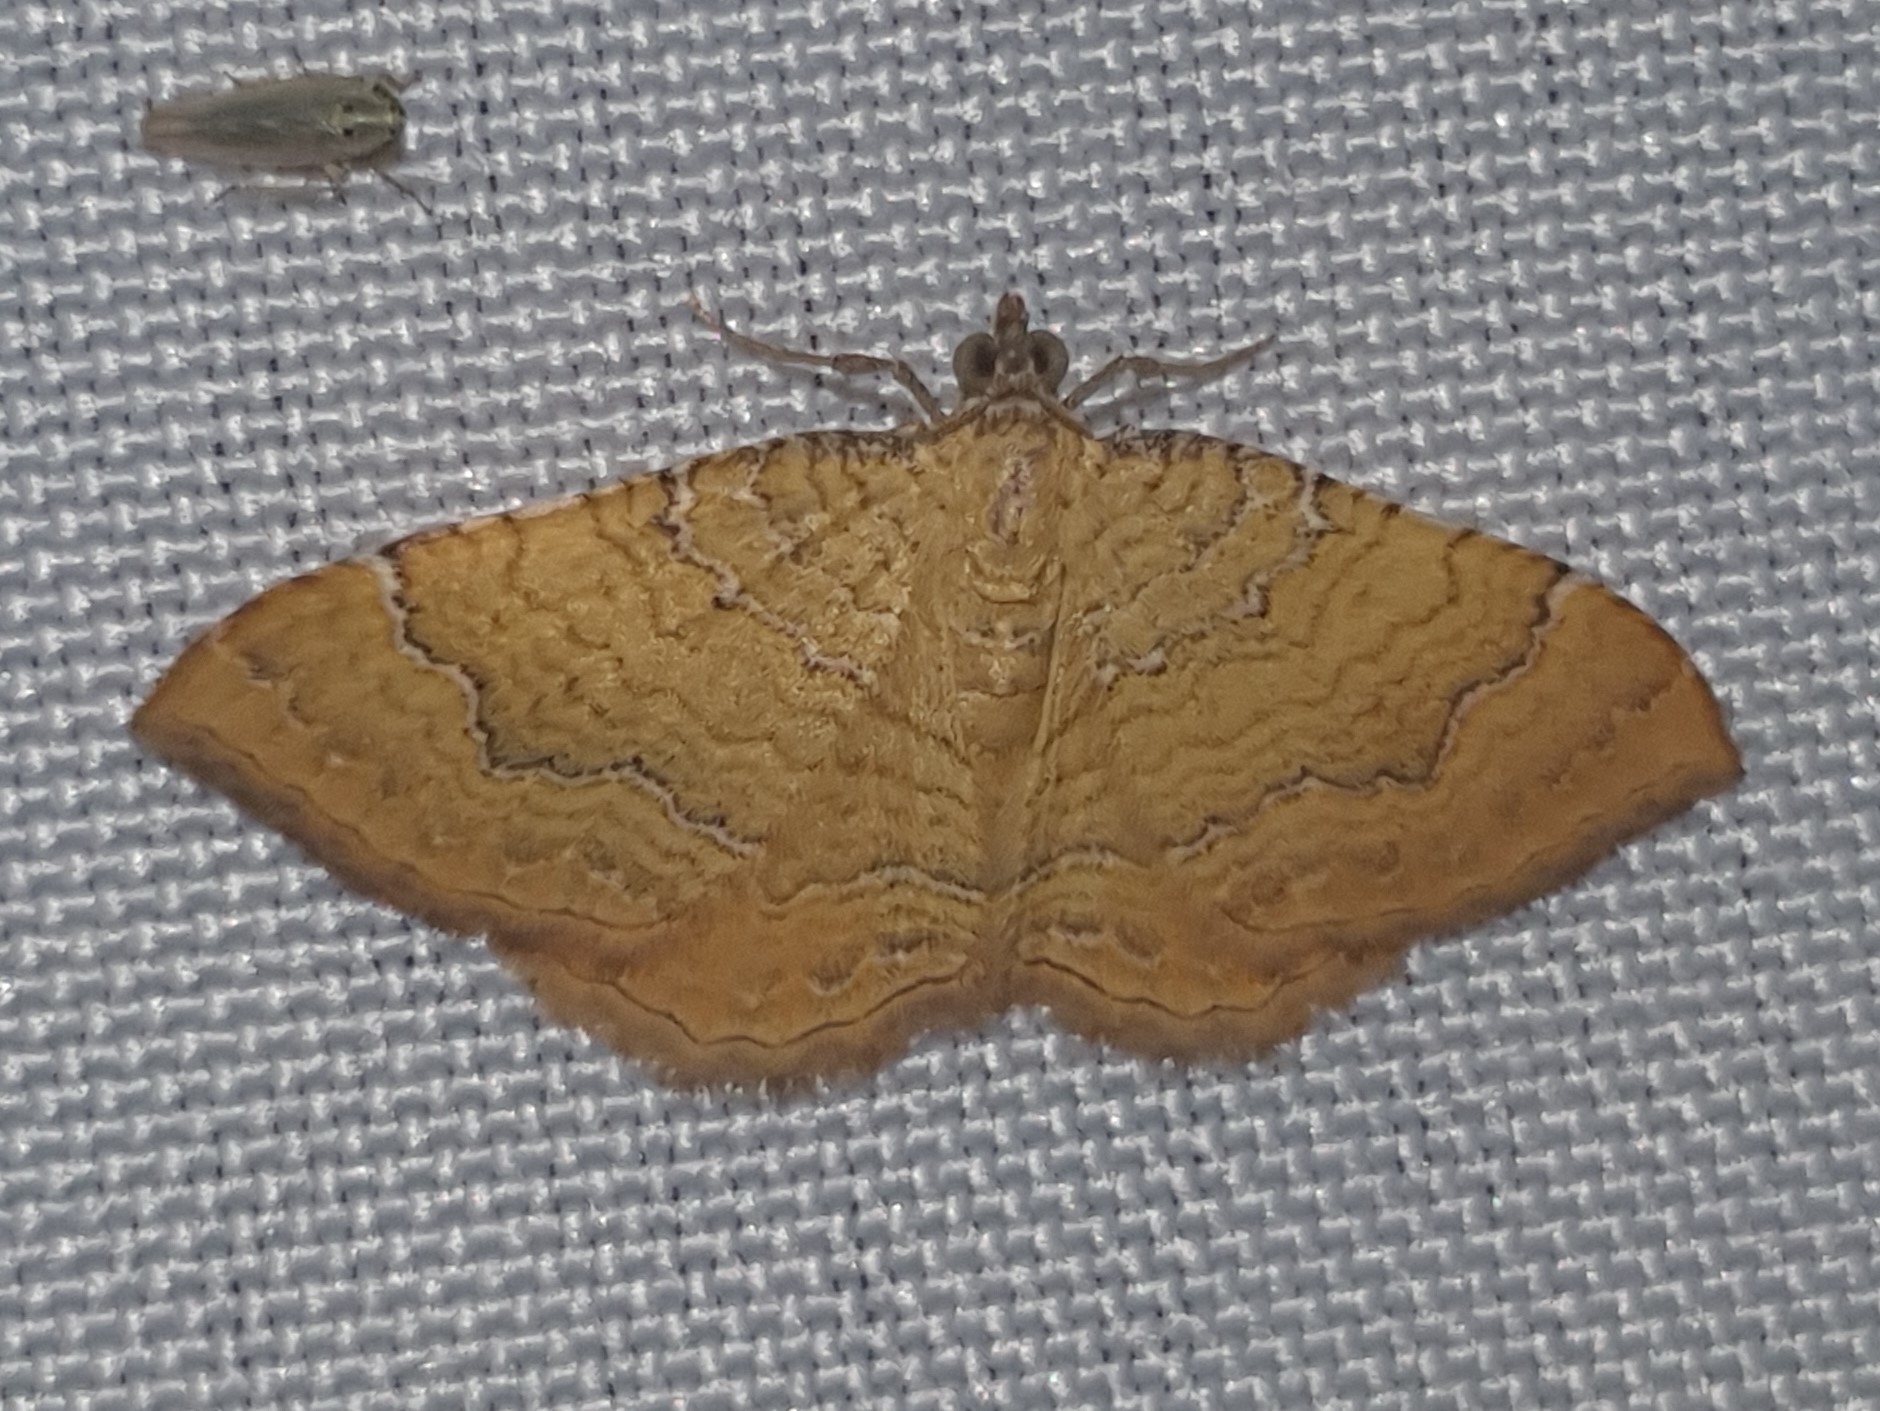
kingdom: Animalia
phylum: Arthropoda
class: Insecta
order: Lepidoptera
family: Geometridae
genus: Camptogramma
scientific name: Camptogramma bilineata
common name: Yellow shell
